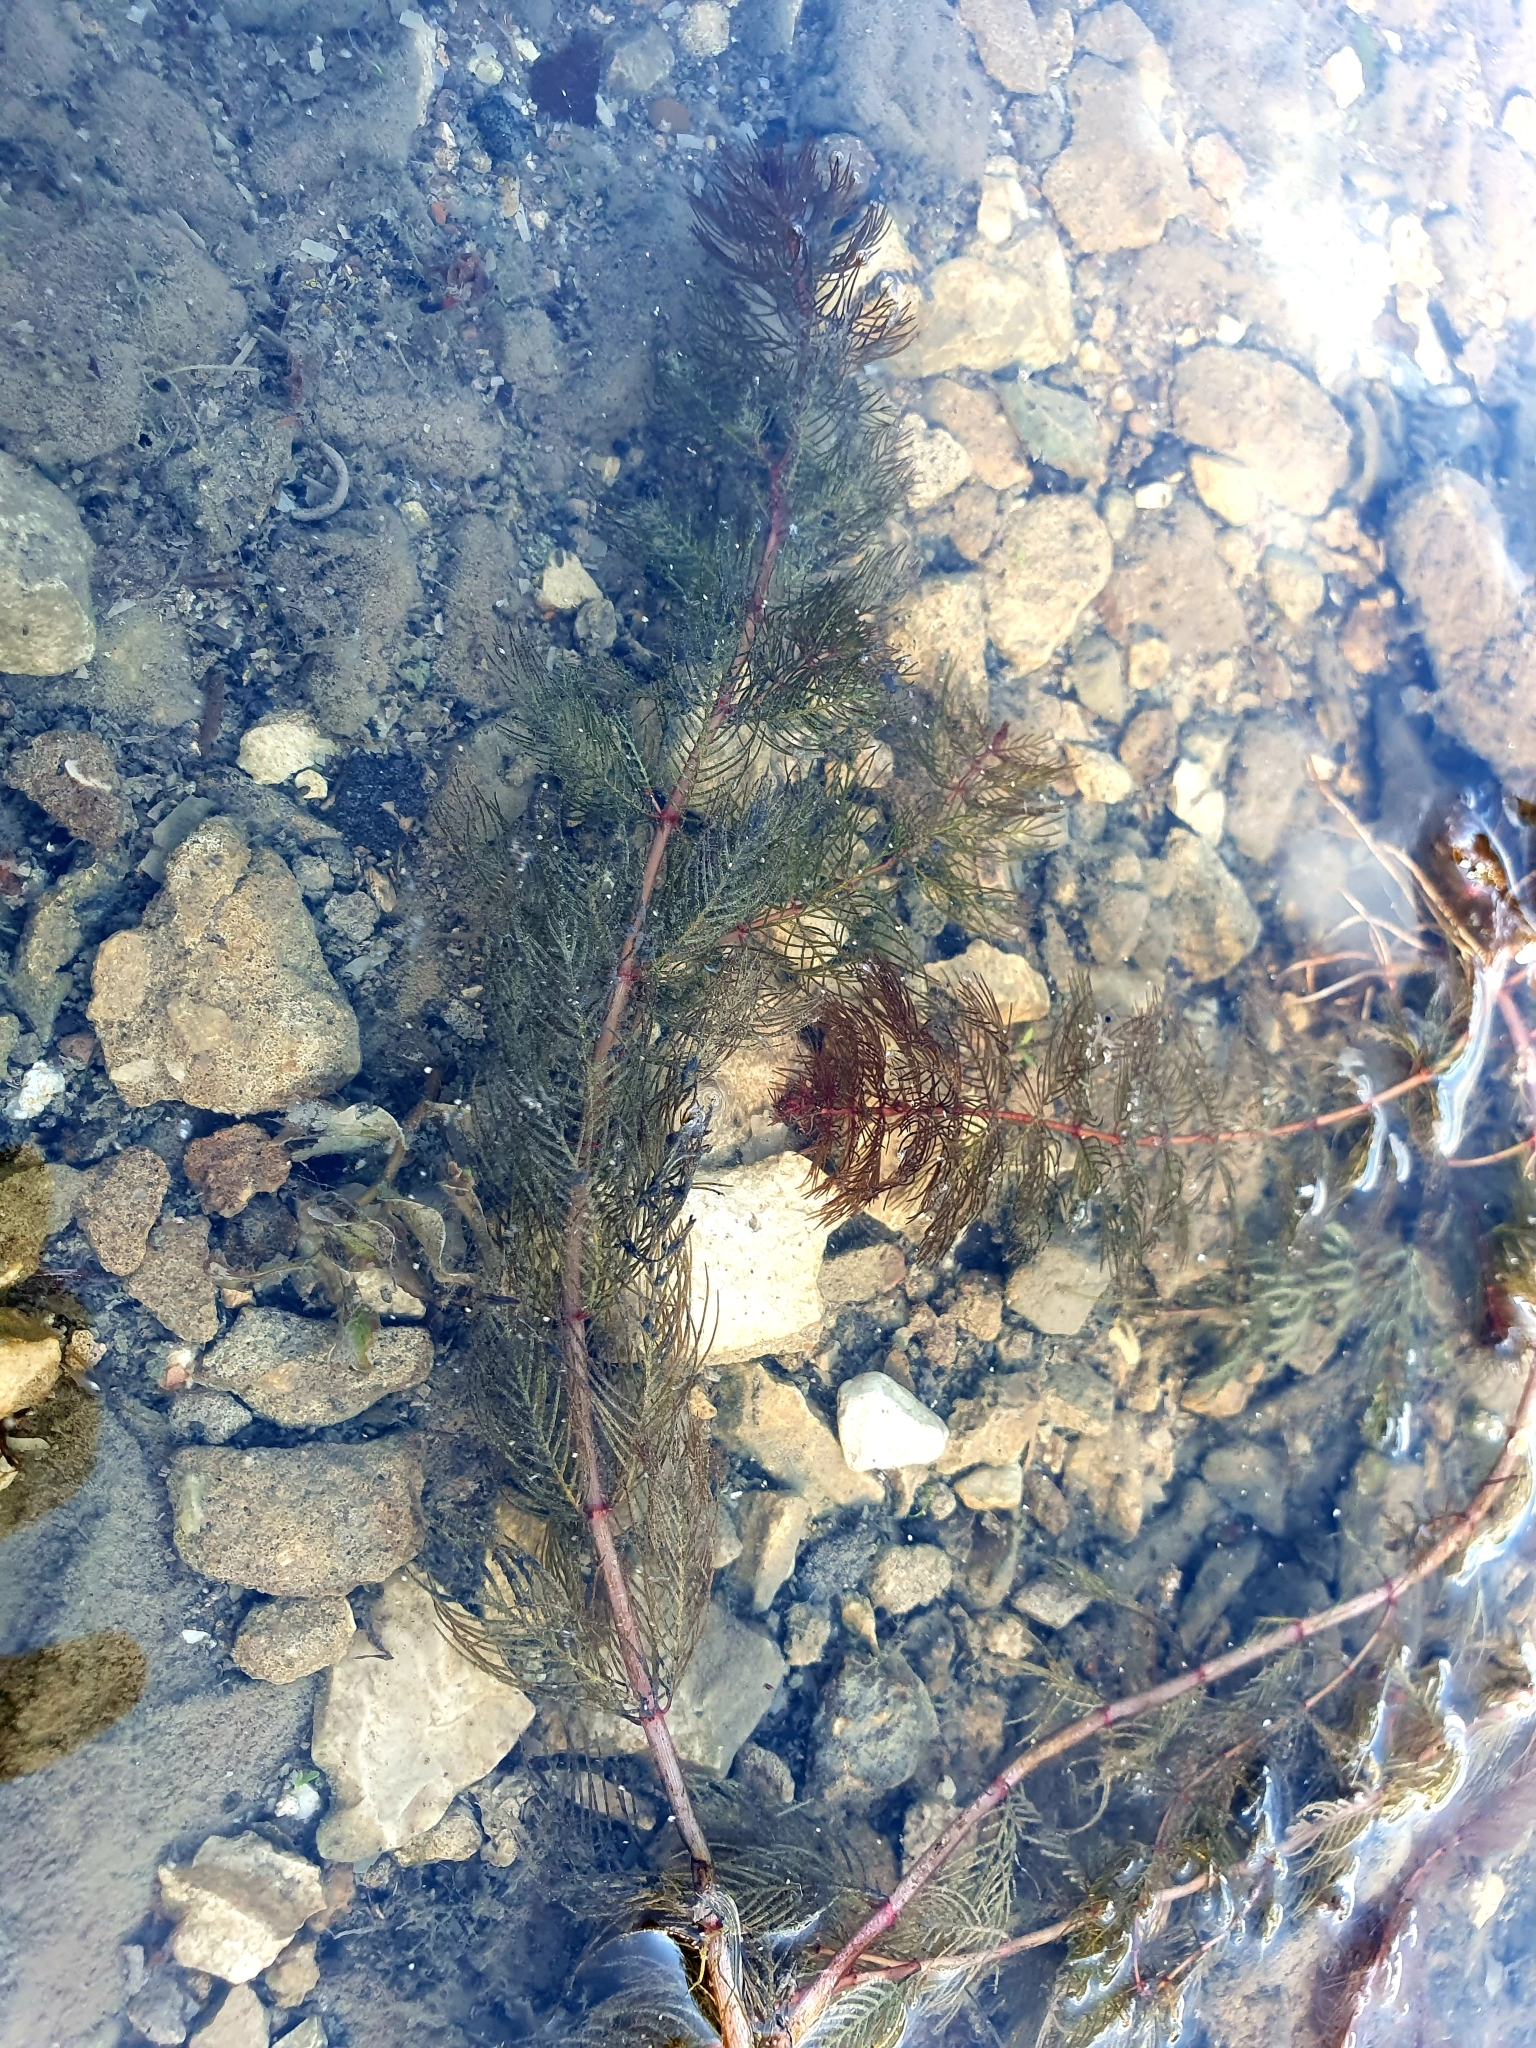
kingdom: Plantae
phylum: Tracheophyta
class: Magnoliopsida
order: Saxifragales
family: Haloragaceae
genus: Myriophyllum
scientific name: Myriophyllum spicatum
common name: Spiked water-milfoil
